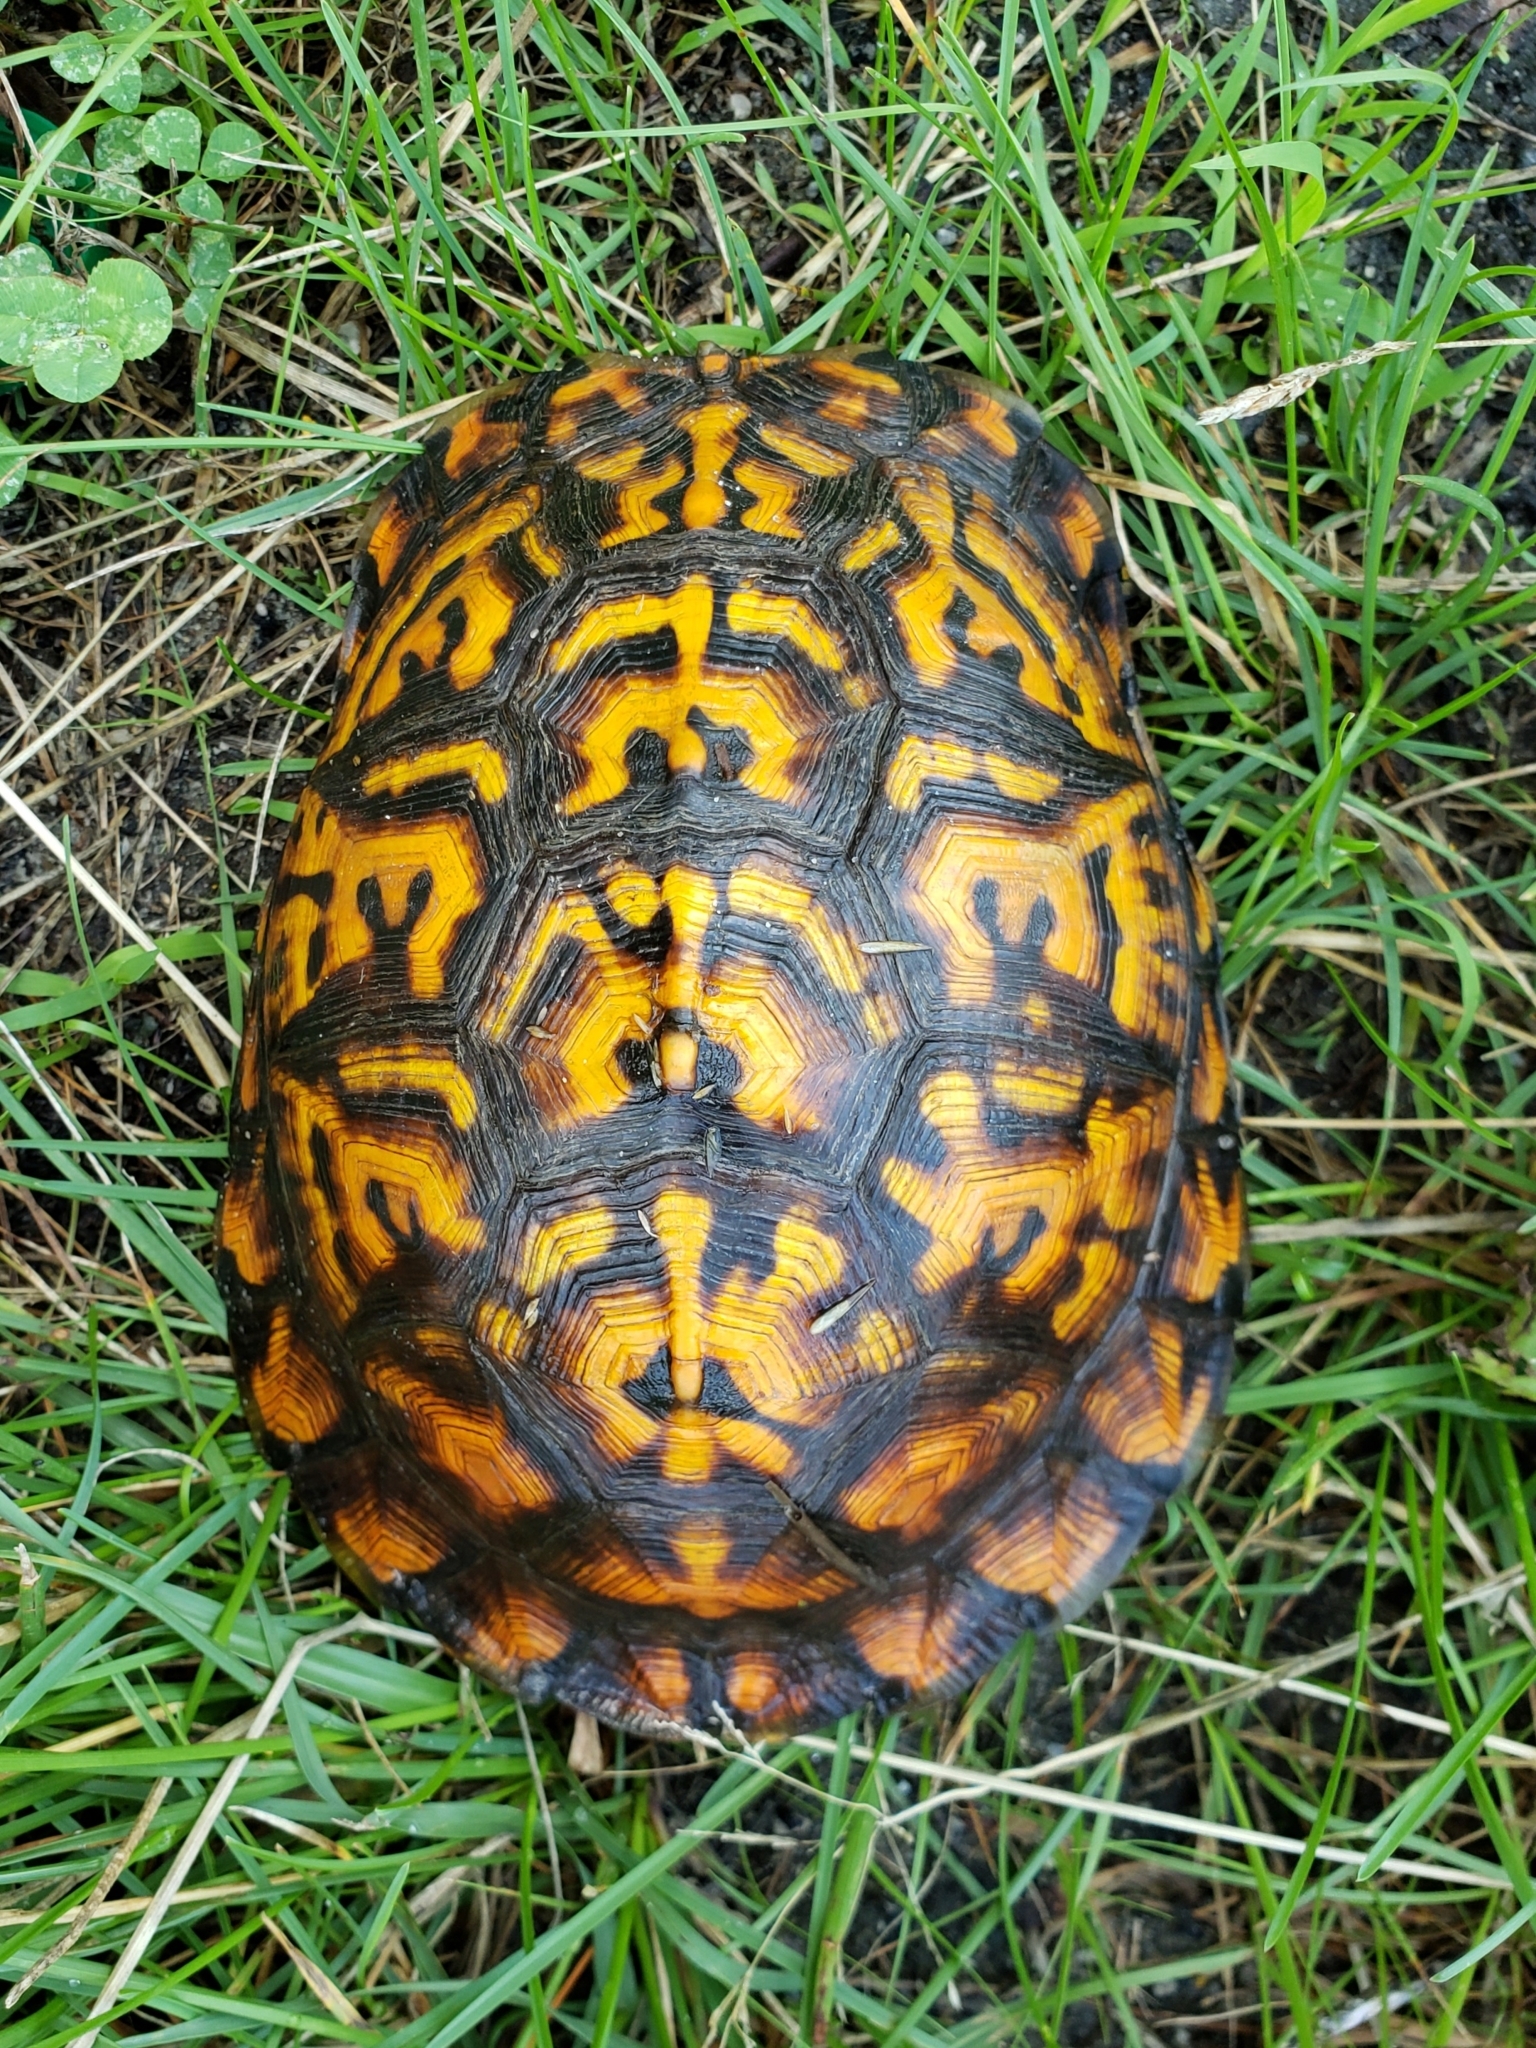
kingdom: Animalia
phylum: Chordata
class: Testudines
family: Emydidae
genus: Terrapene
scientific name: Terrapene carolina
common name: Common box turtle
